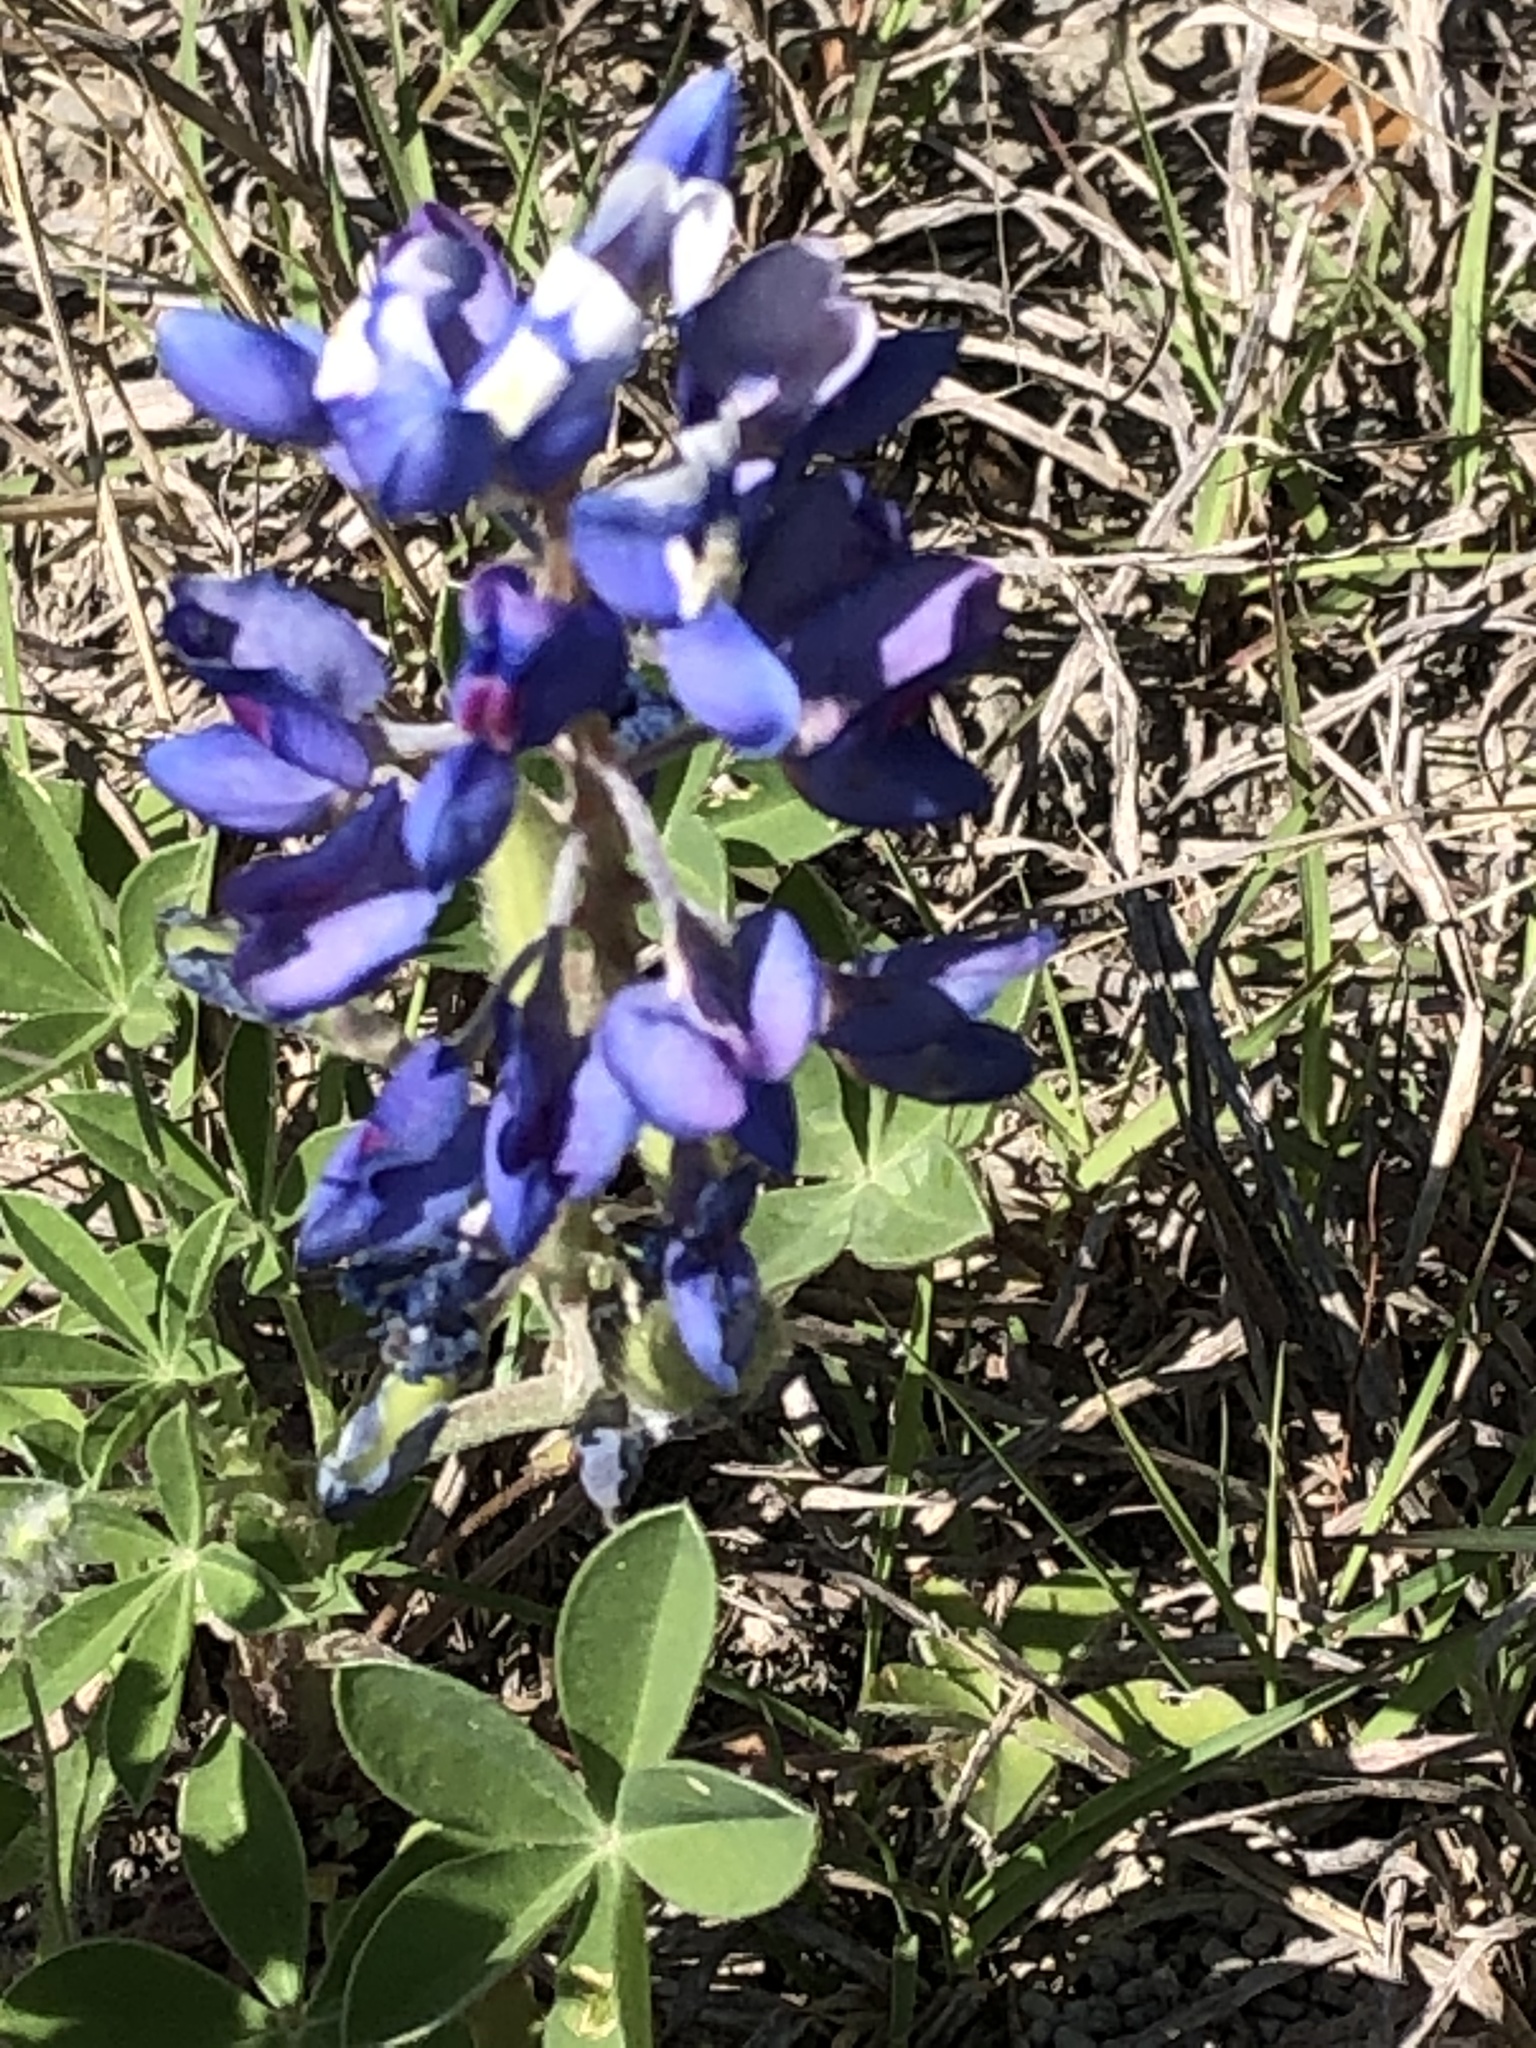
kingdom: Plantae
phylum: Tracheophyta
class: Magnoliopsida
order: Fabales
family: Fabaceae
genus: Lupinus
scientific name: Lupinus texensis
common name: Texas bluebonnet
